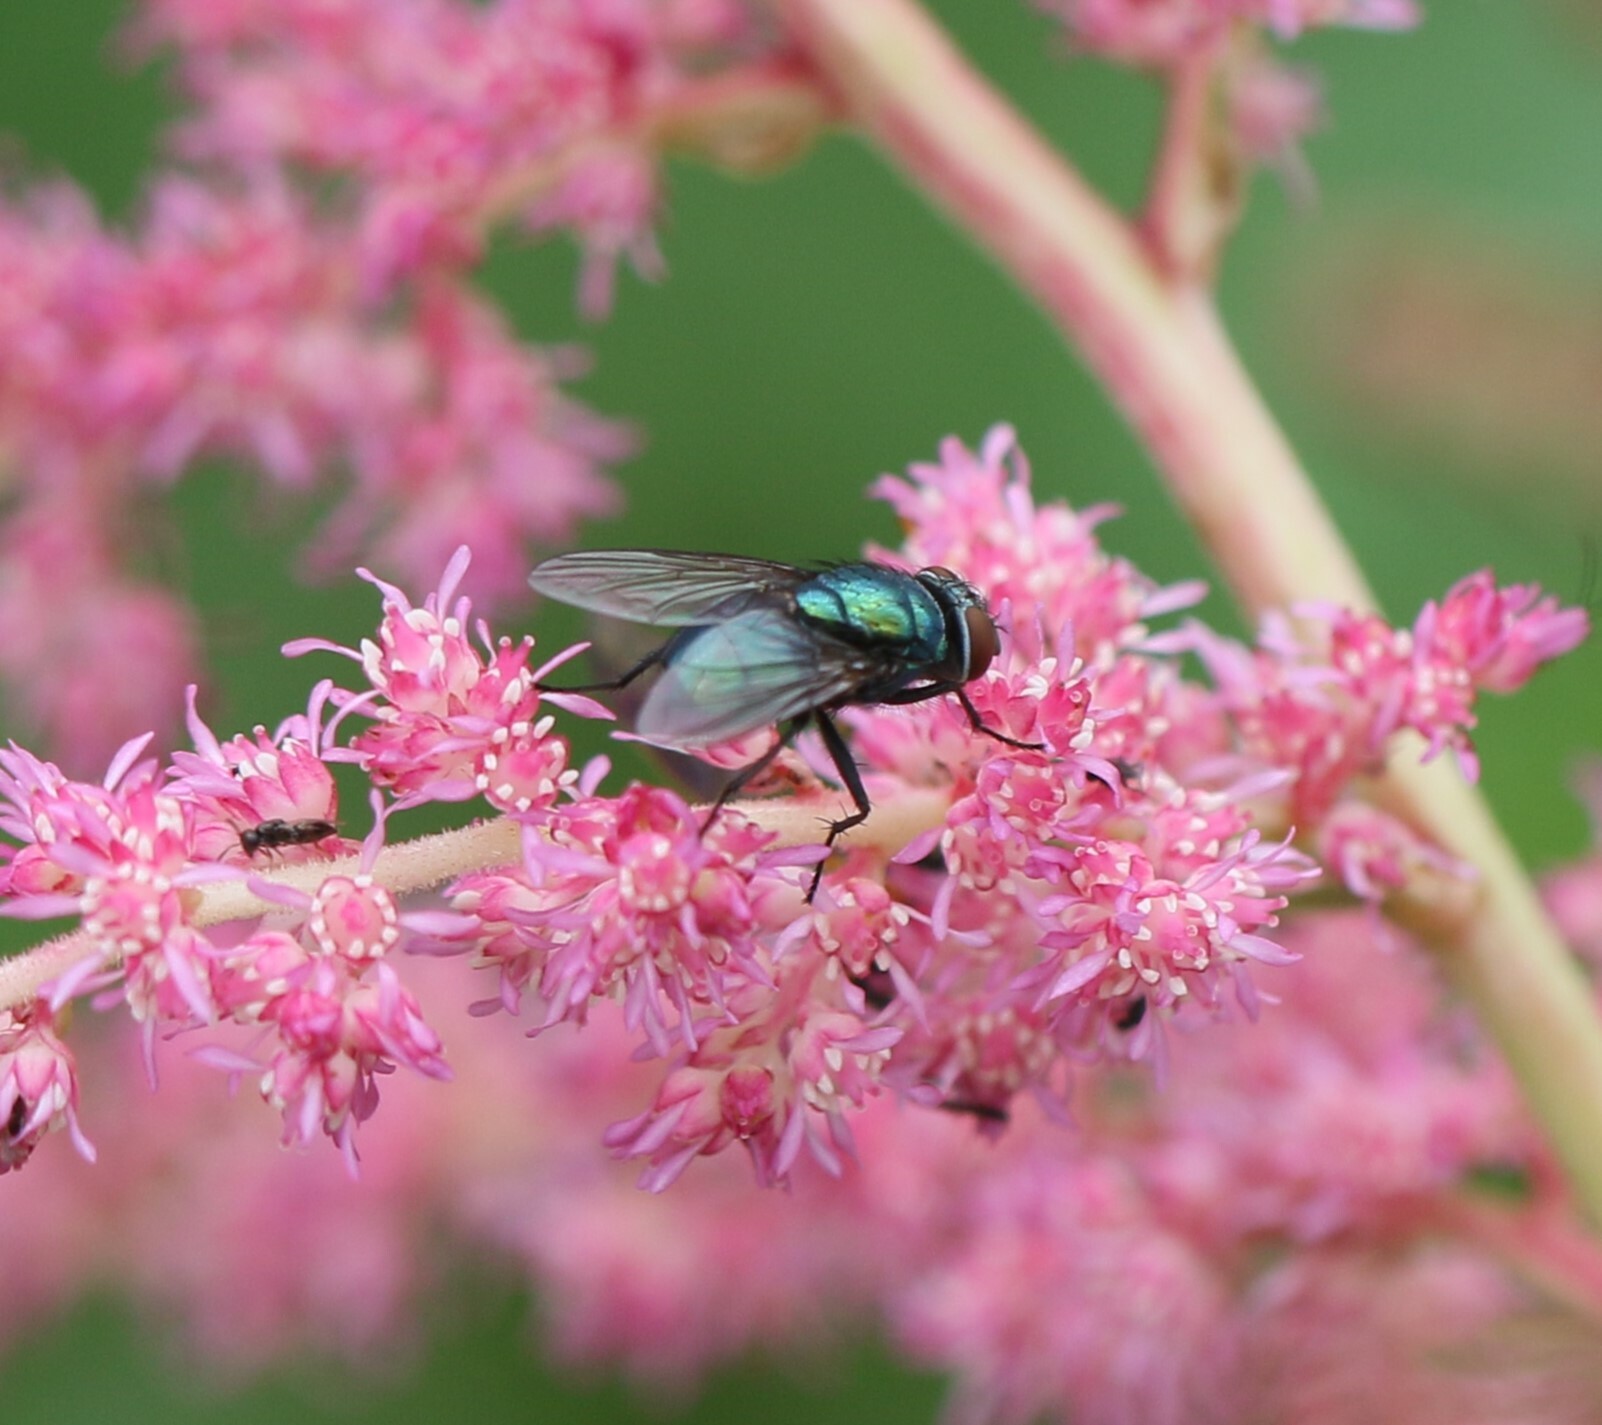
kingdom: Animalia
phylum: Arthropoda
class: Insecta
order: Diptera
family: Calliphoridae
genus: Lucilia
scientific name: Lucilia illustris
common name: Illustrious greenbottle
